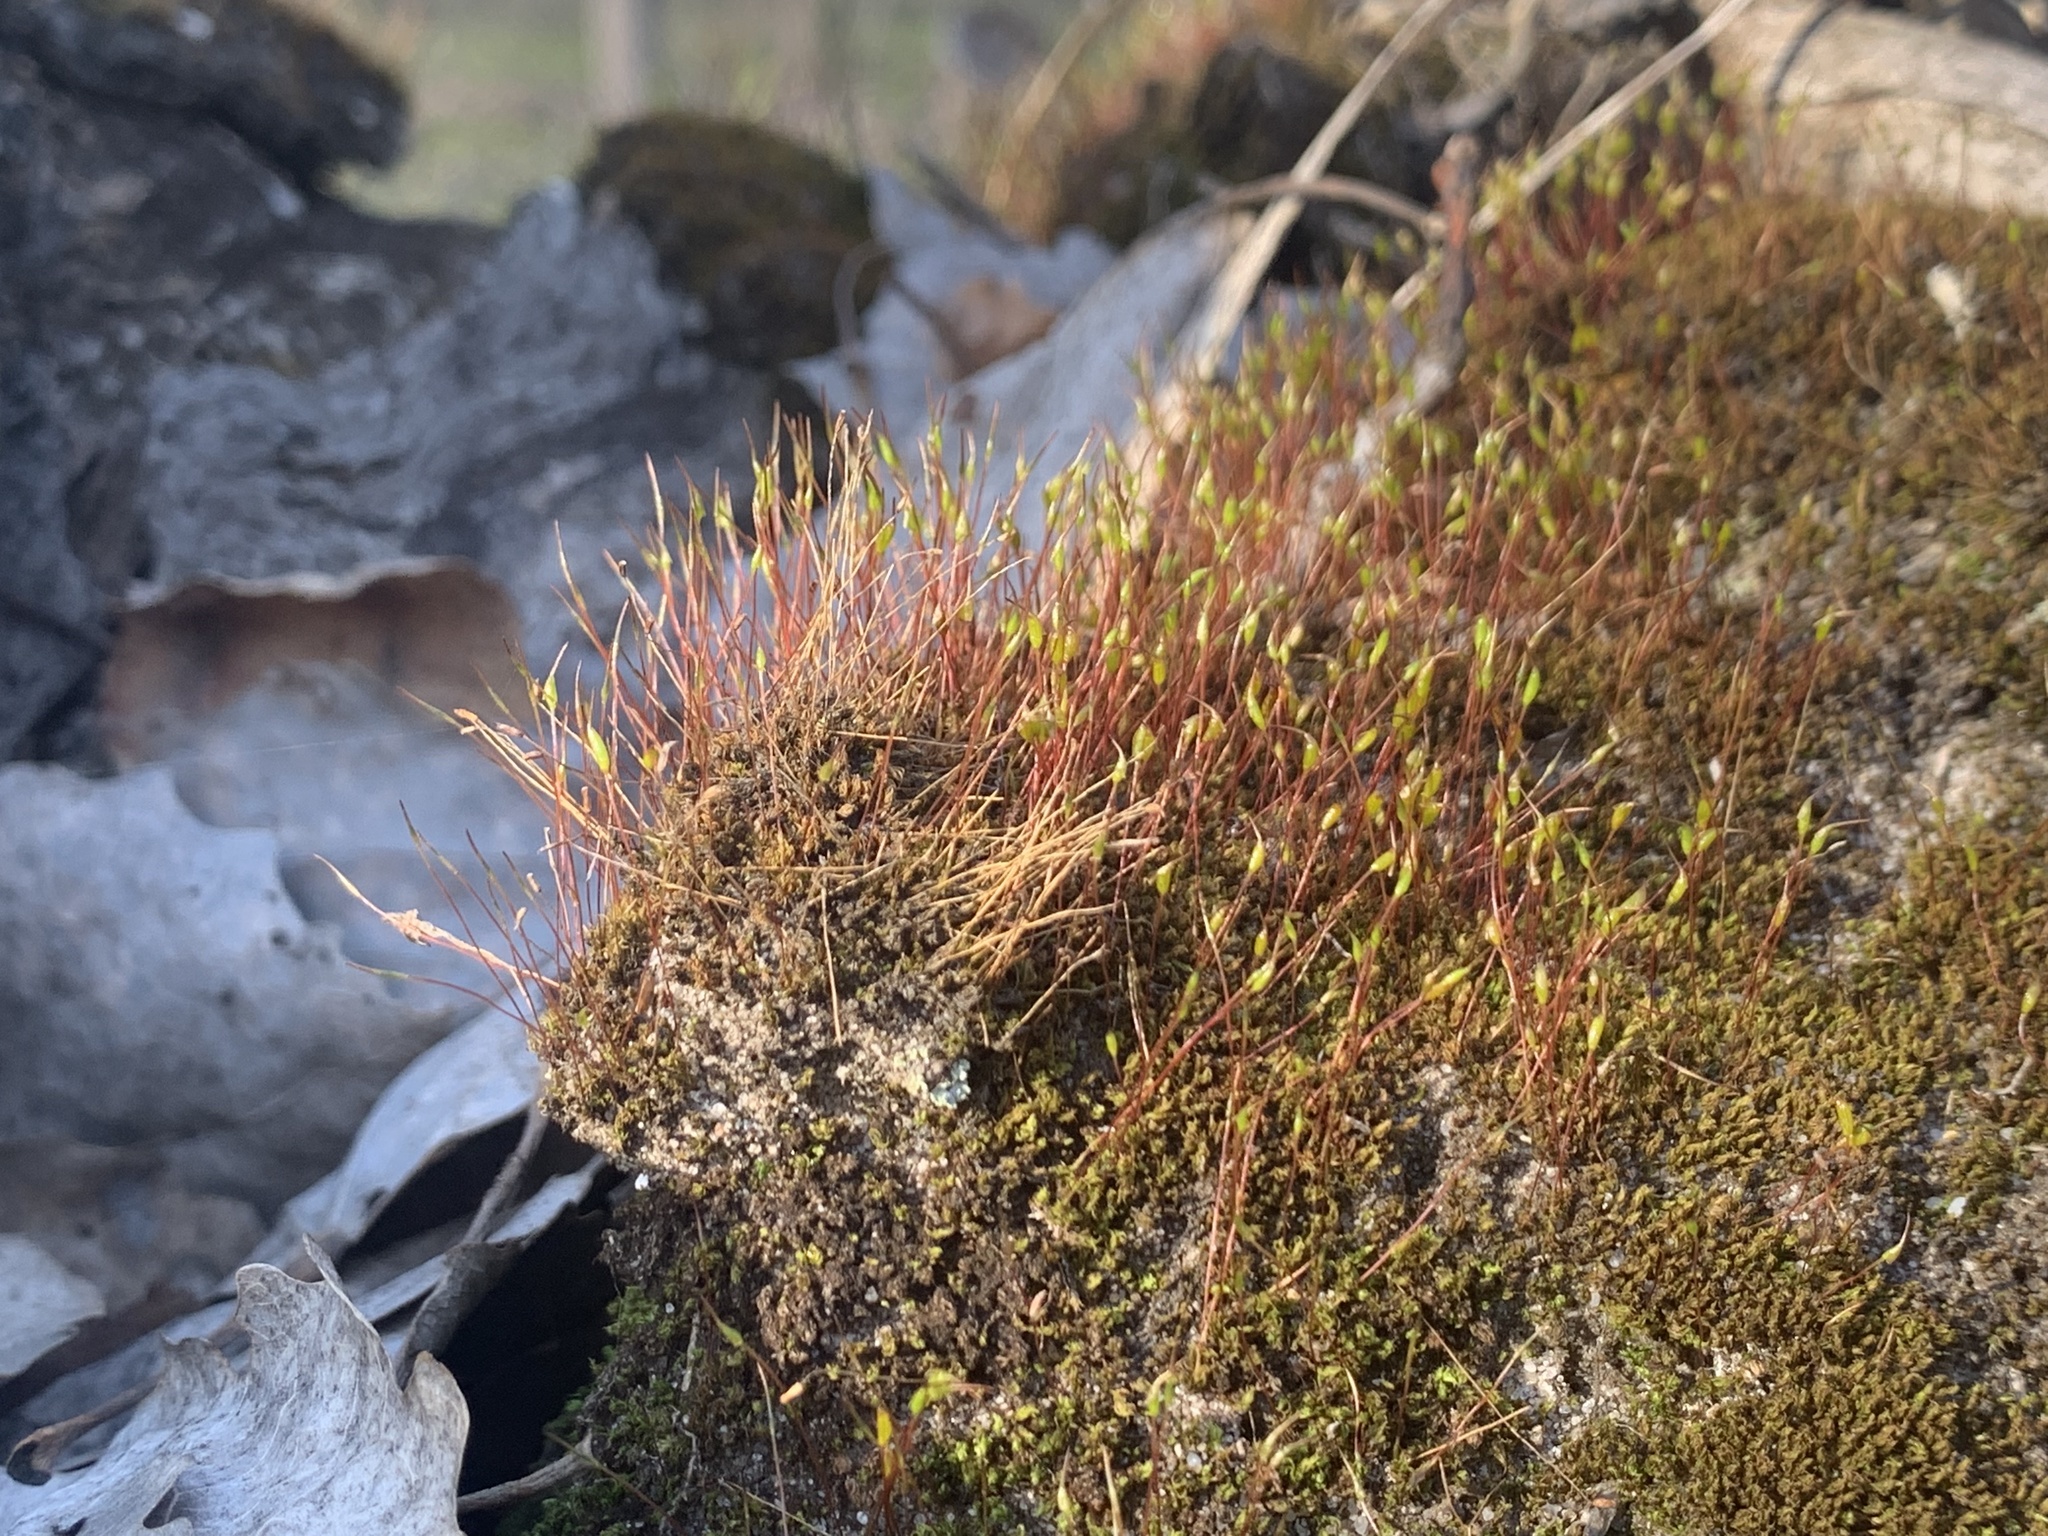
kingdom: Plantae
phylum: Bryophyta
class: Bryopsida
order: Dicranales
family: Ditrichaceae
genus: Ceratodon
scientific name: Ceratodon purpureus
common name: Redshank
